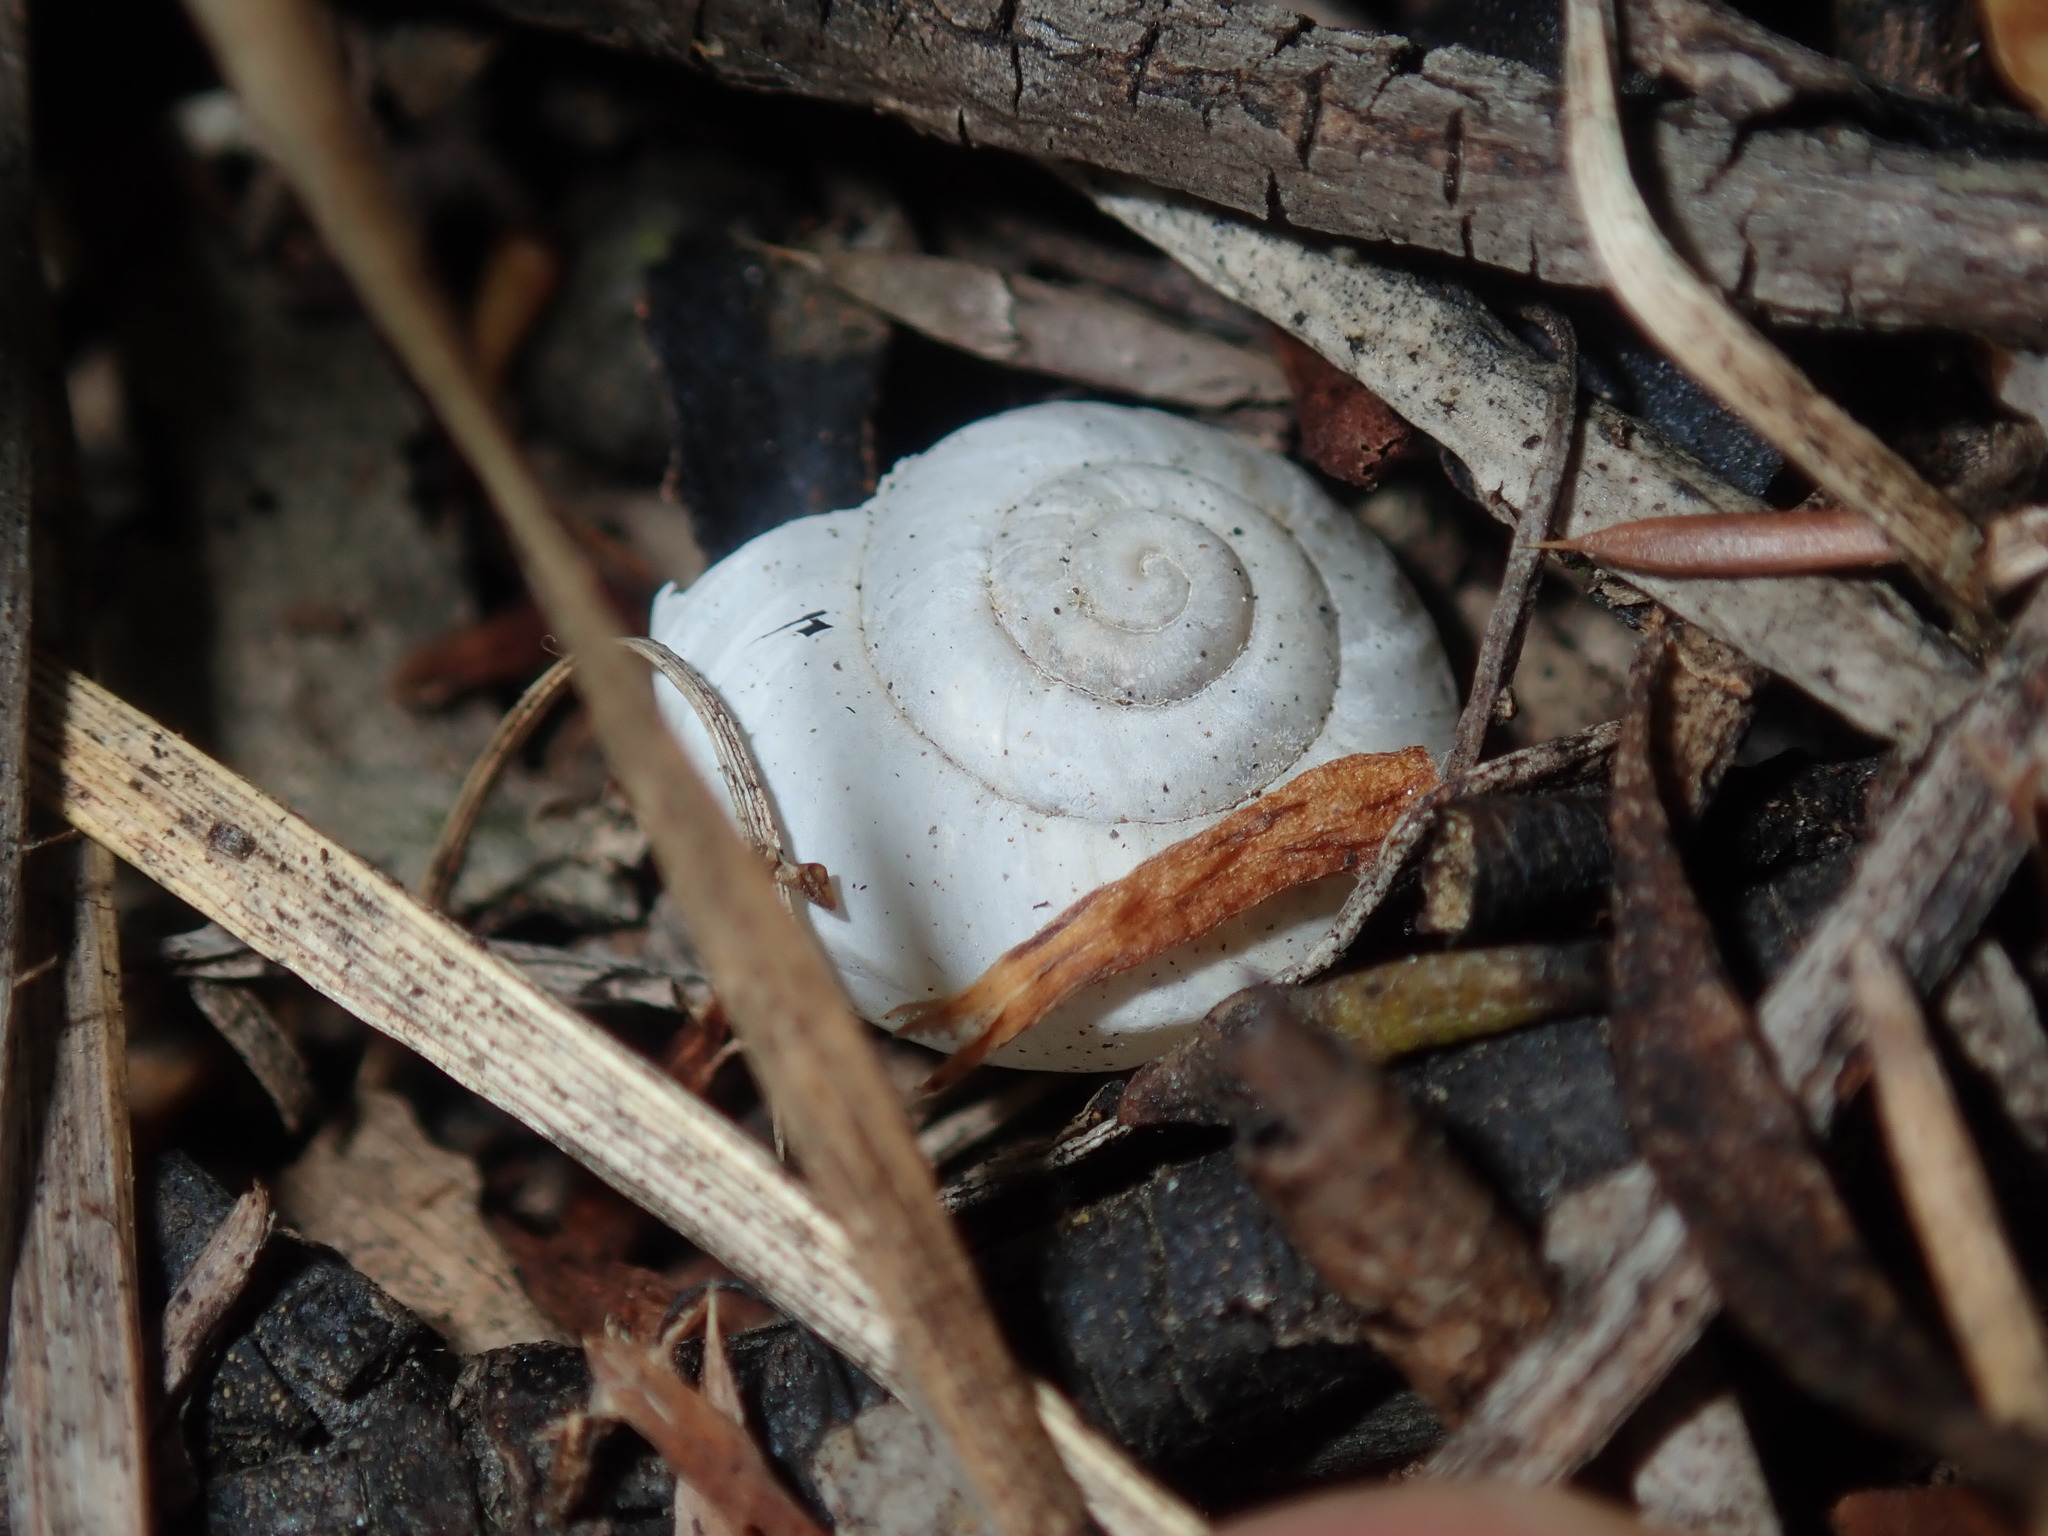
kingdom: Animalia
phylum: Mollusca
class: Gastropoda
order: Stylommatophora
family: Camaenidae
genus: Sauroconcha
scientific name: Sauroconcha sheai
